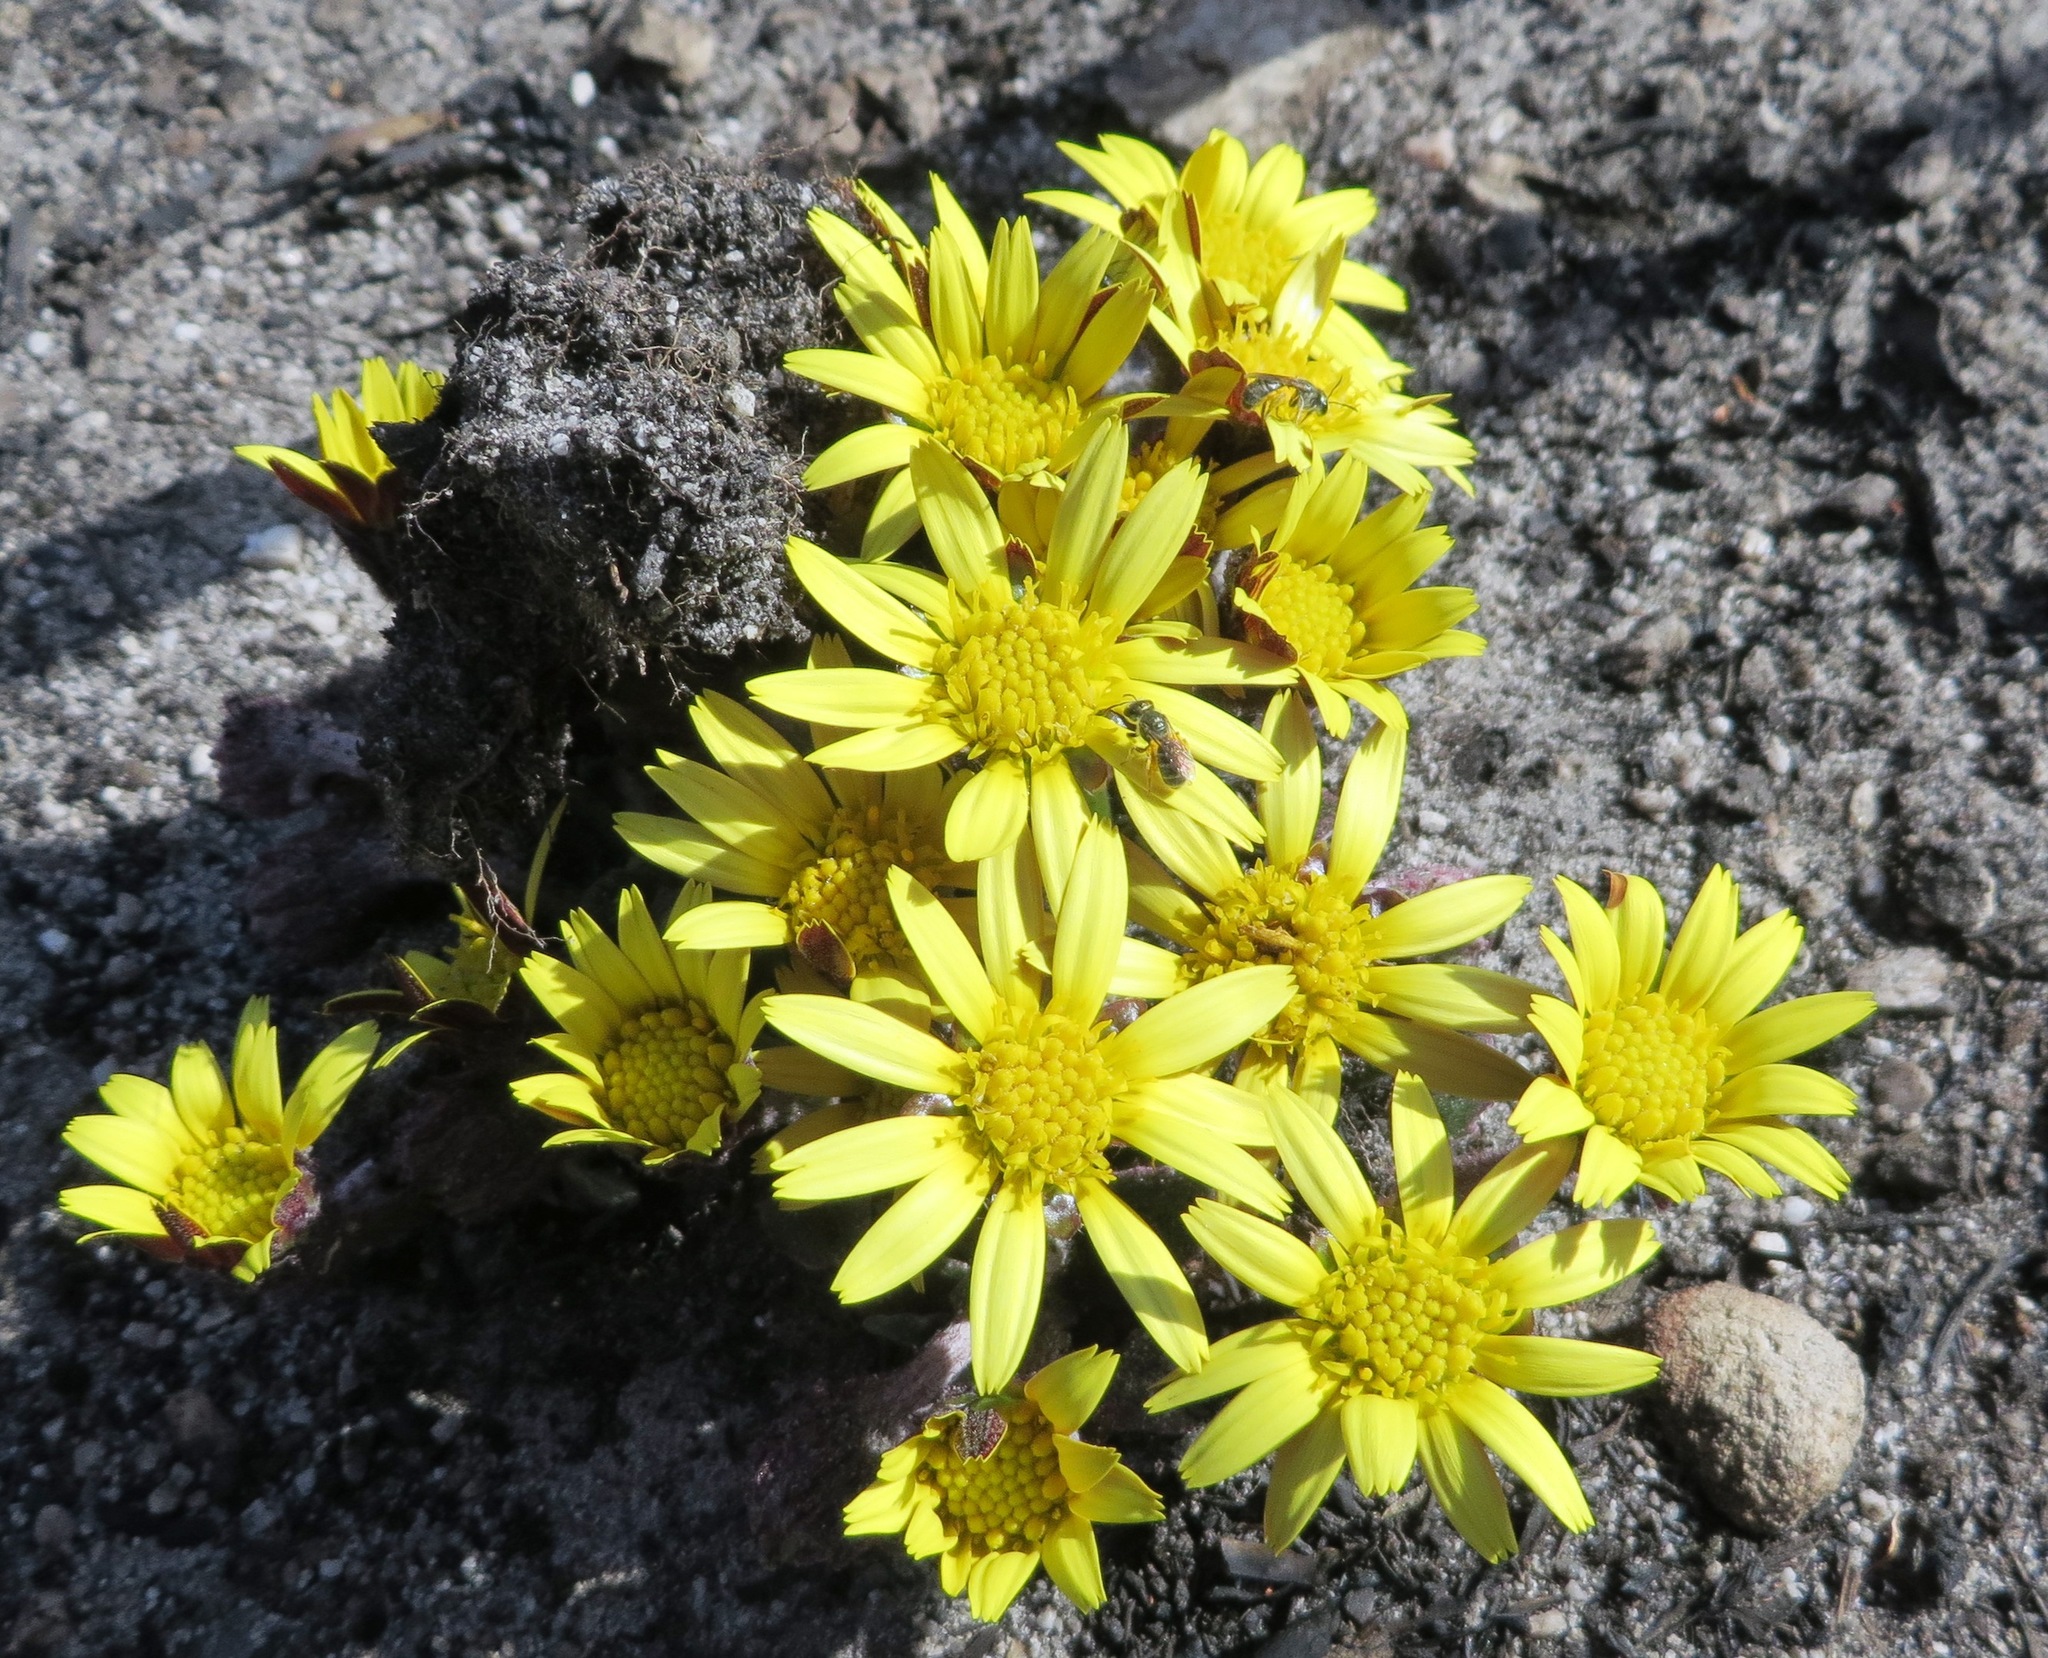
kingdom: Plantae
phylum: Tracheophyta
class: Magnoliopsida
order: Asterales
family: Asteraceae
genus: Haplocarpha
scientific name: Haplocarpha lanata
